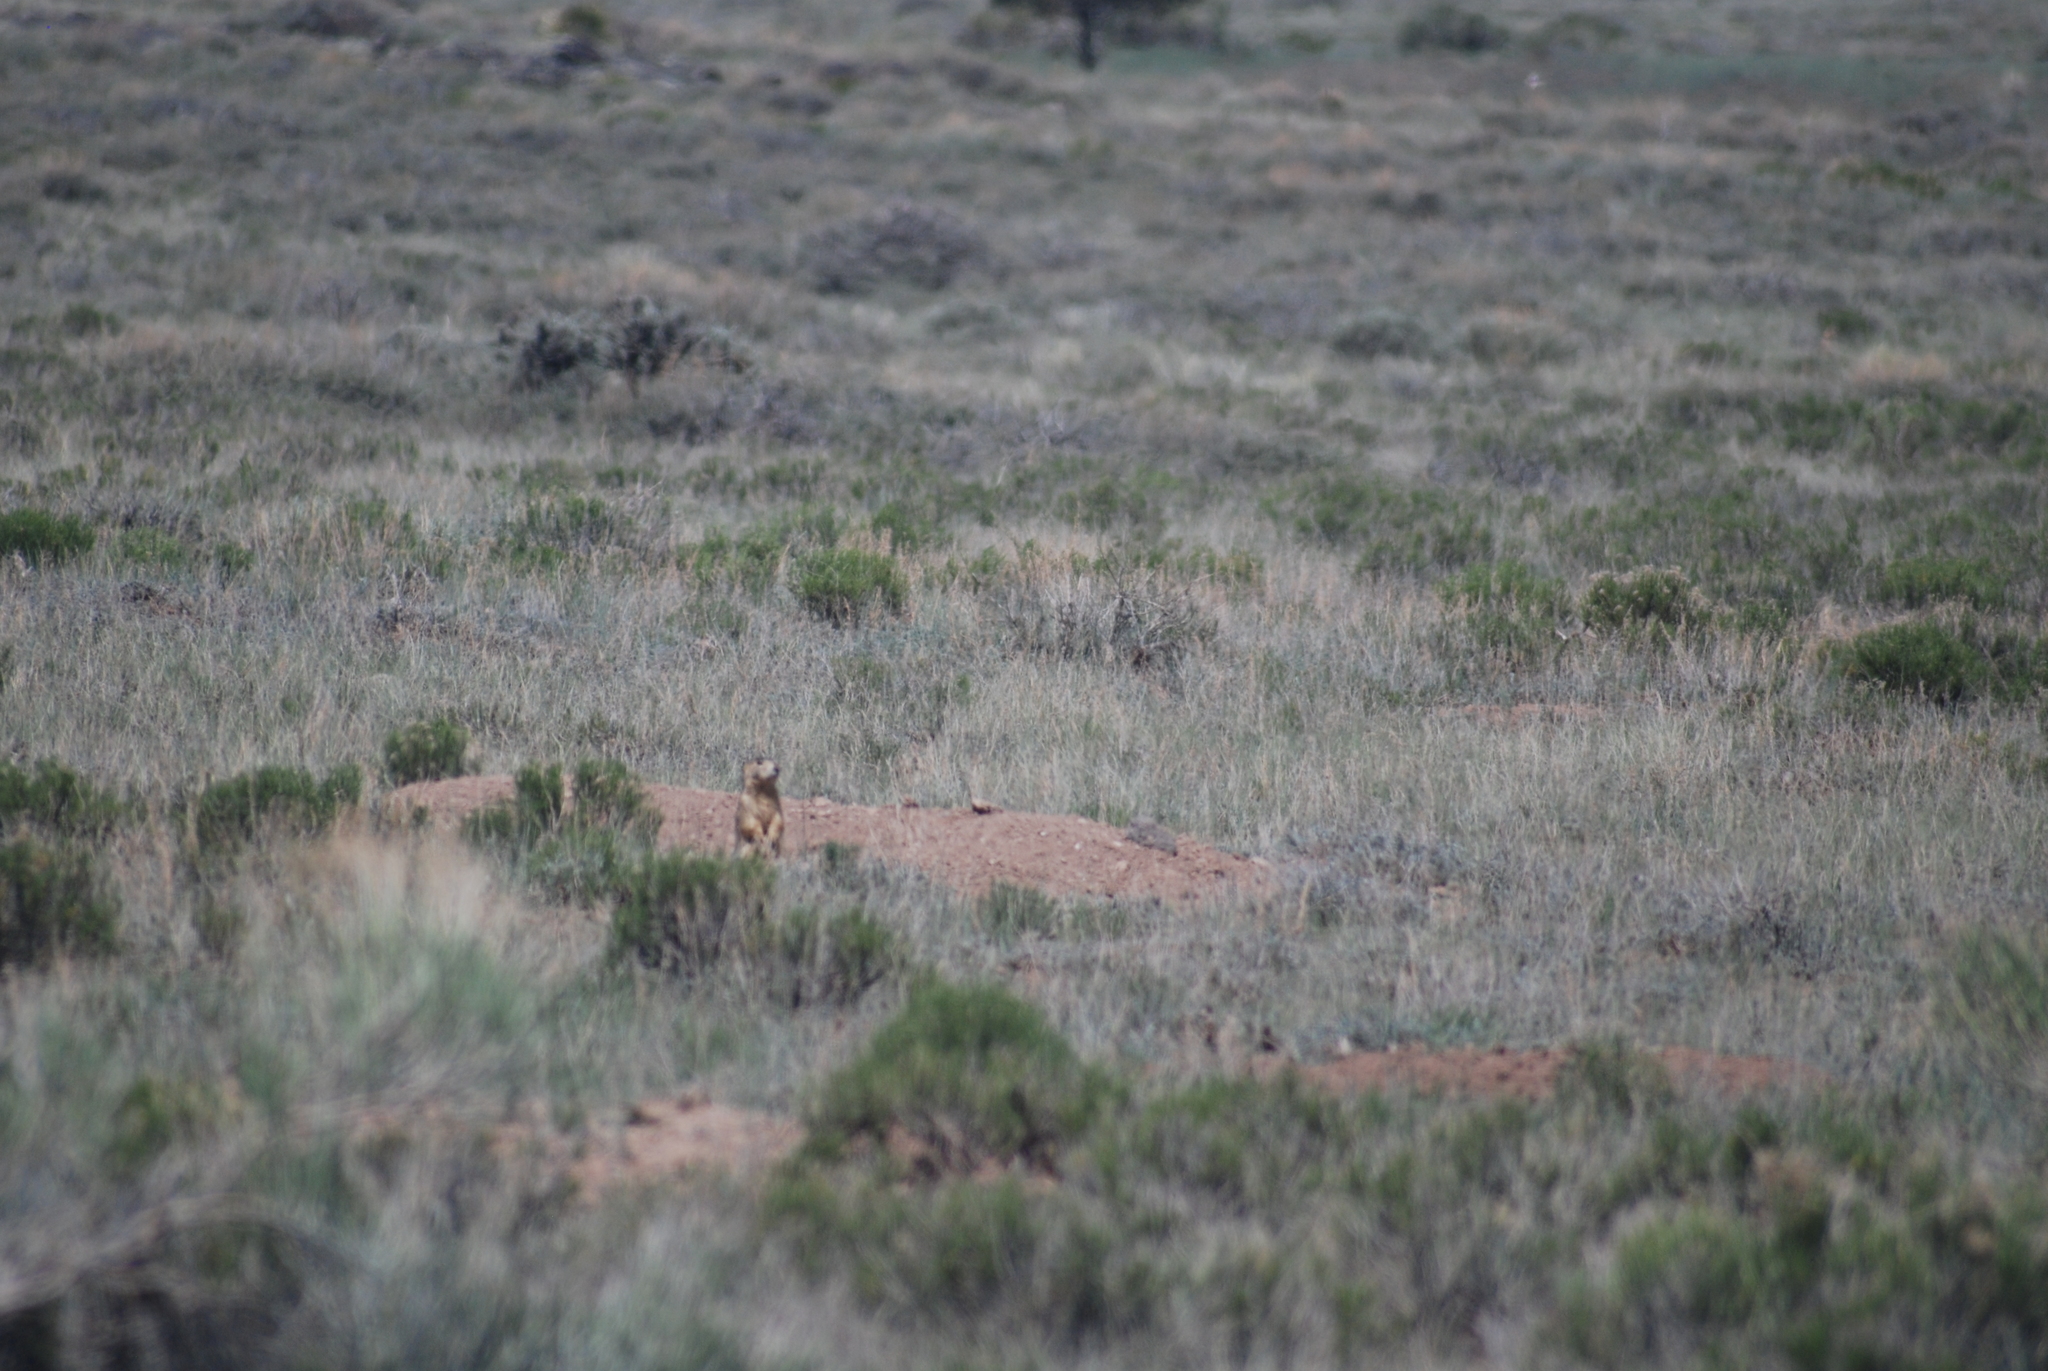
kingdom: Animalia
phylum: Chordata
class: Mammalia
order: Rodentia
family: Sciuridae
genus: Cynomys
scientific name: Cynomys gunnisoni
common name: Gunnison's prairie dog
